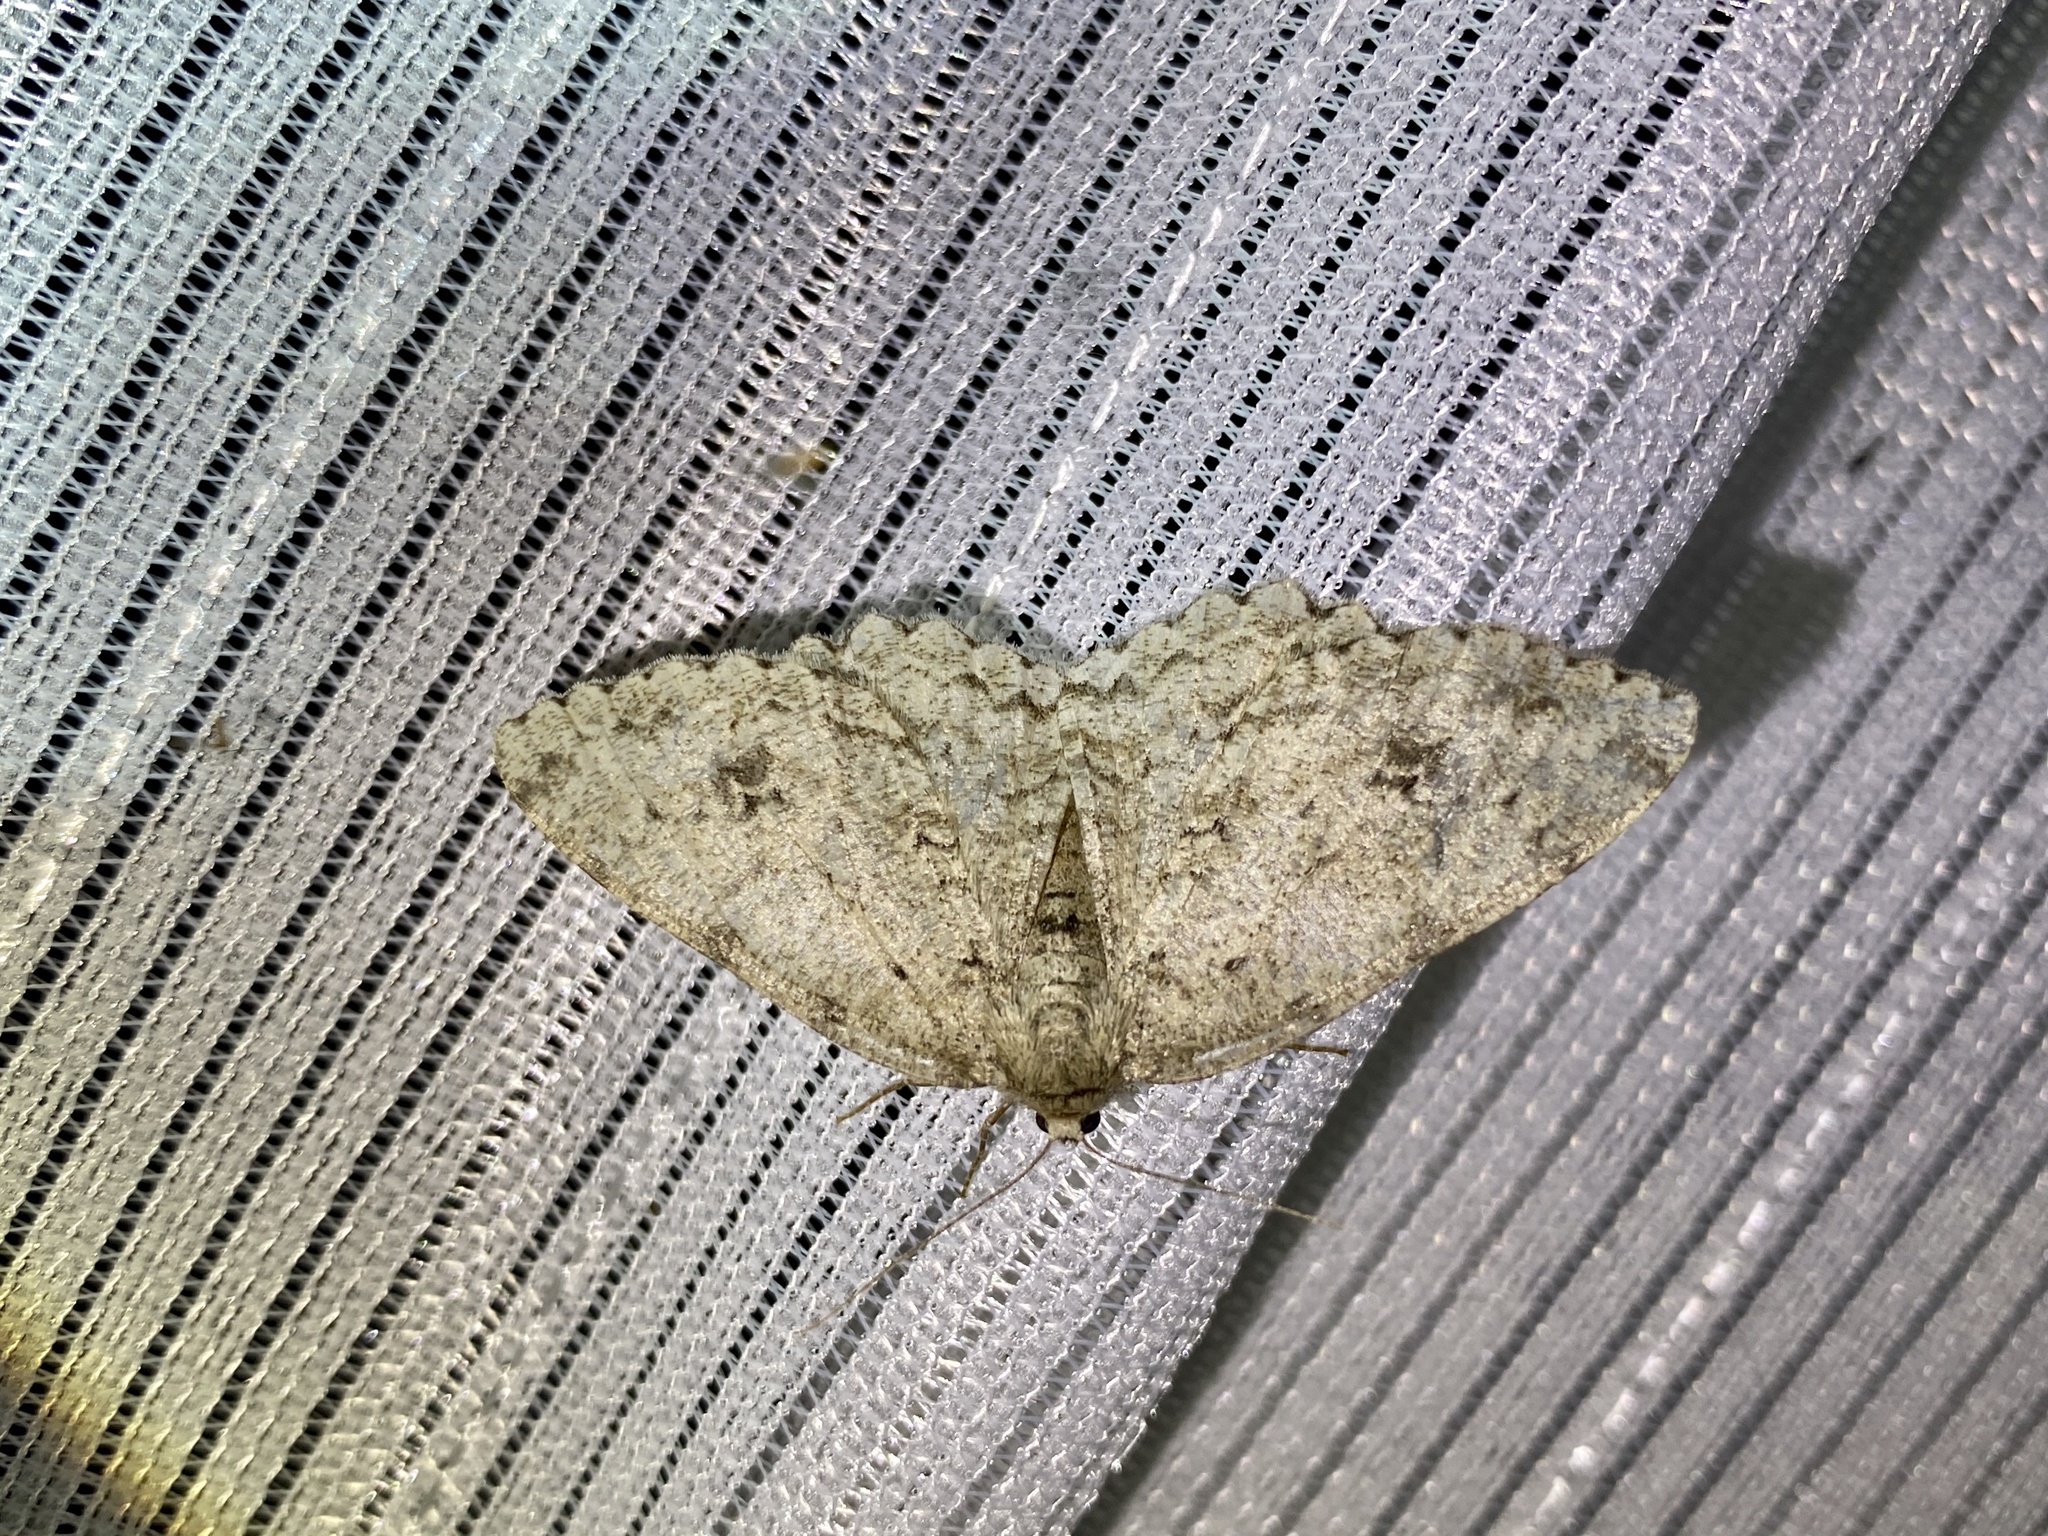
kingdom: Animalia
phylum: Arthropoda
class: Insecta
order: Lepidoptera
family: Geometridae
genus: Ectropis
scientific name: Ectropis excellens
